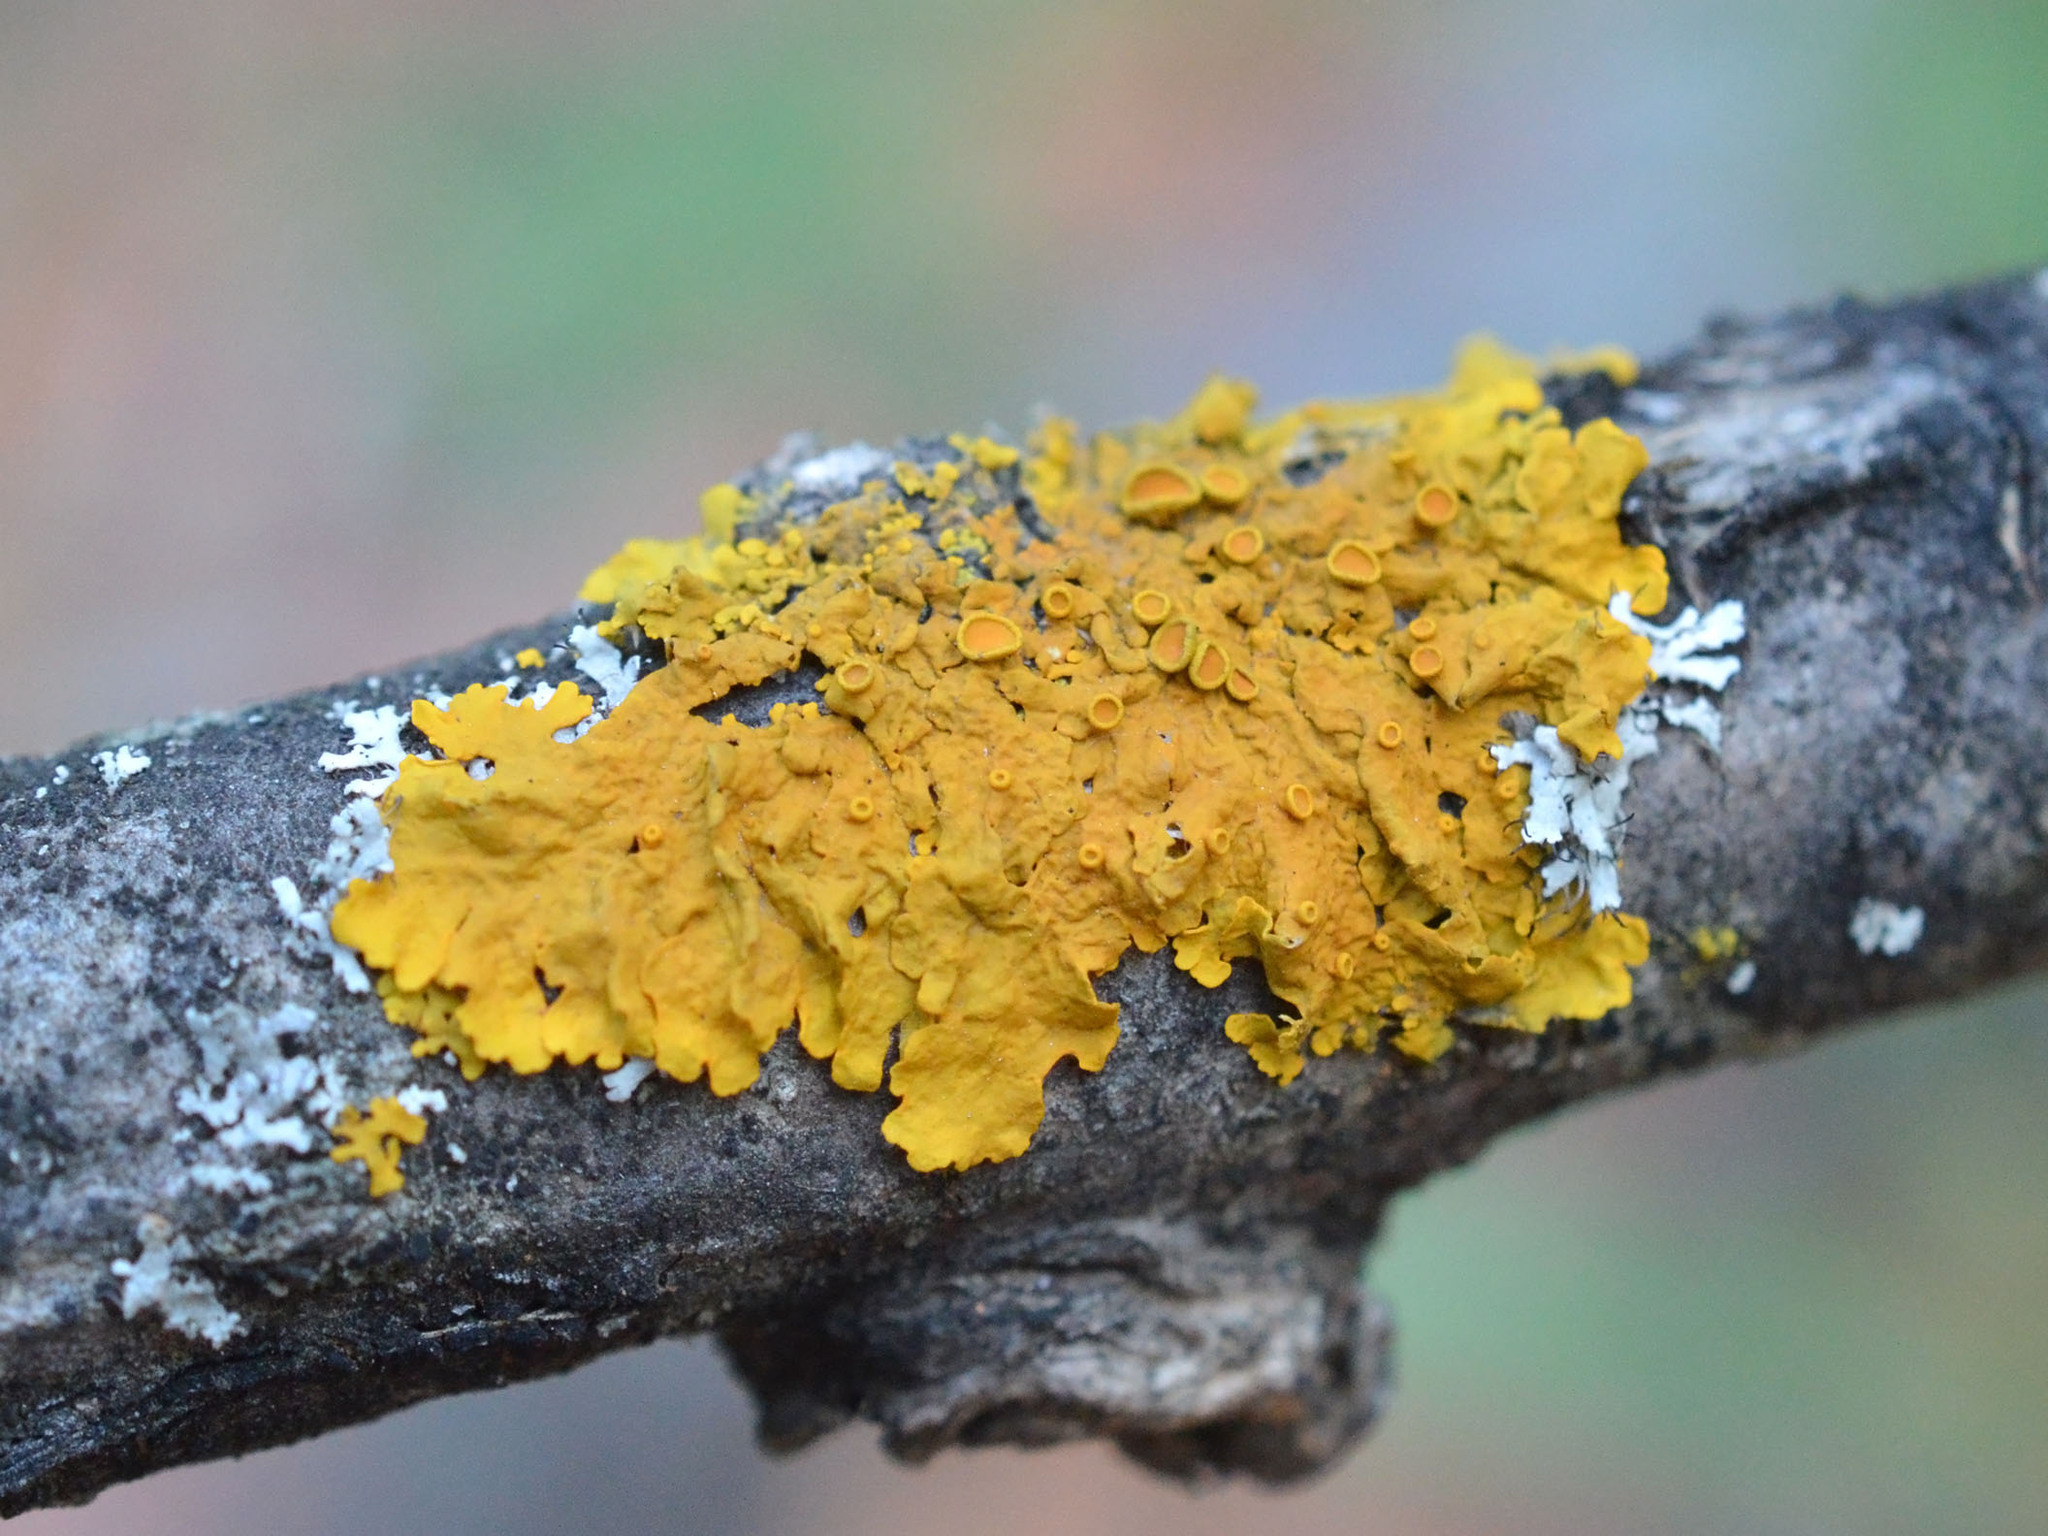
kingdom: Fungi
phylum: Ascomycota
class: Lecanoromycetes
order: Teloschistales
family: Teloschistaceae
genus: Xanthoria
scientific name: Xanthoria parietina
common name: Common orange lichen
